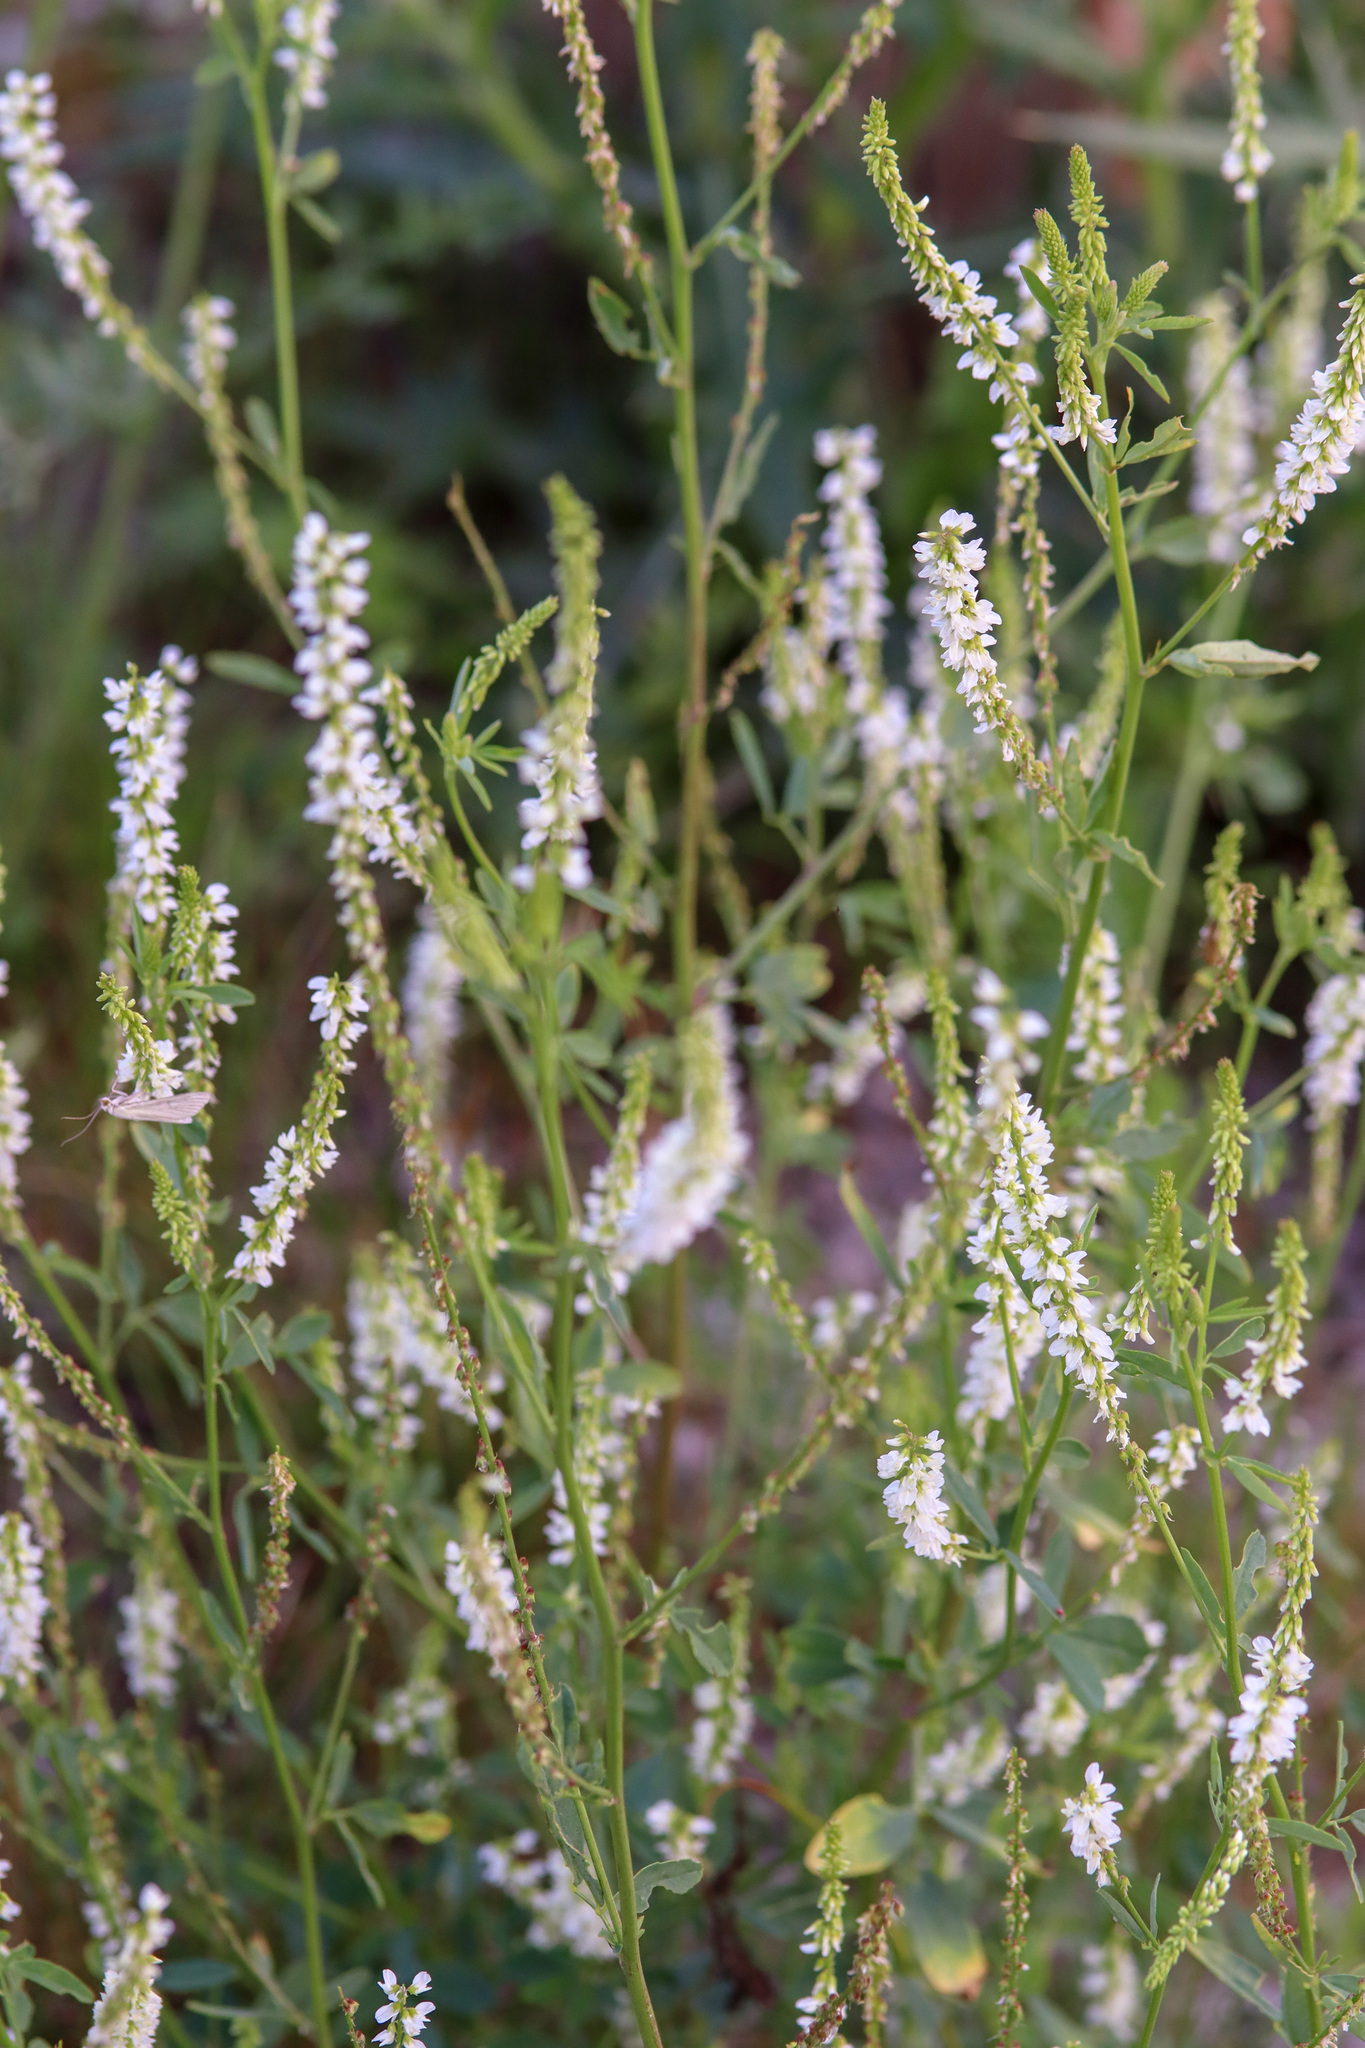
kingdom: Plantae
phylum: Tracheophyta
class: Magnoliopsida
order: Fabales
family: Fabaceae
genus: Melilotus
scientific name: Melilotus albus
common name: White melilot
